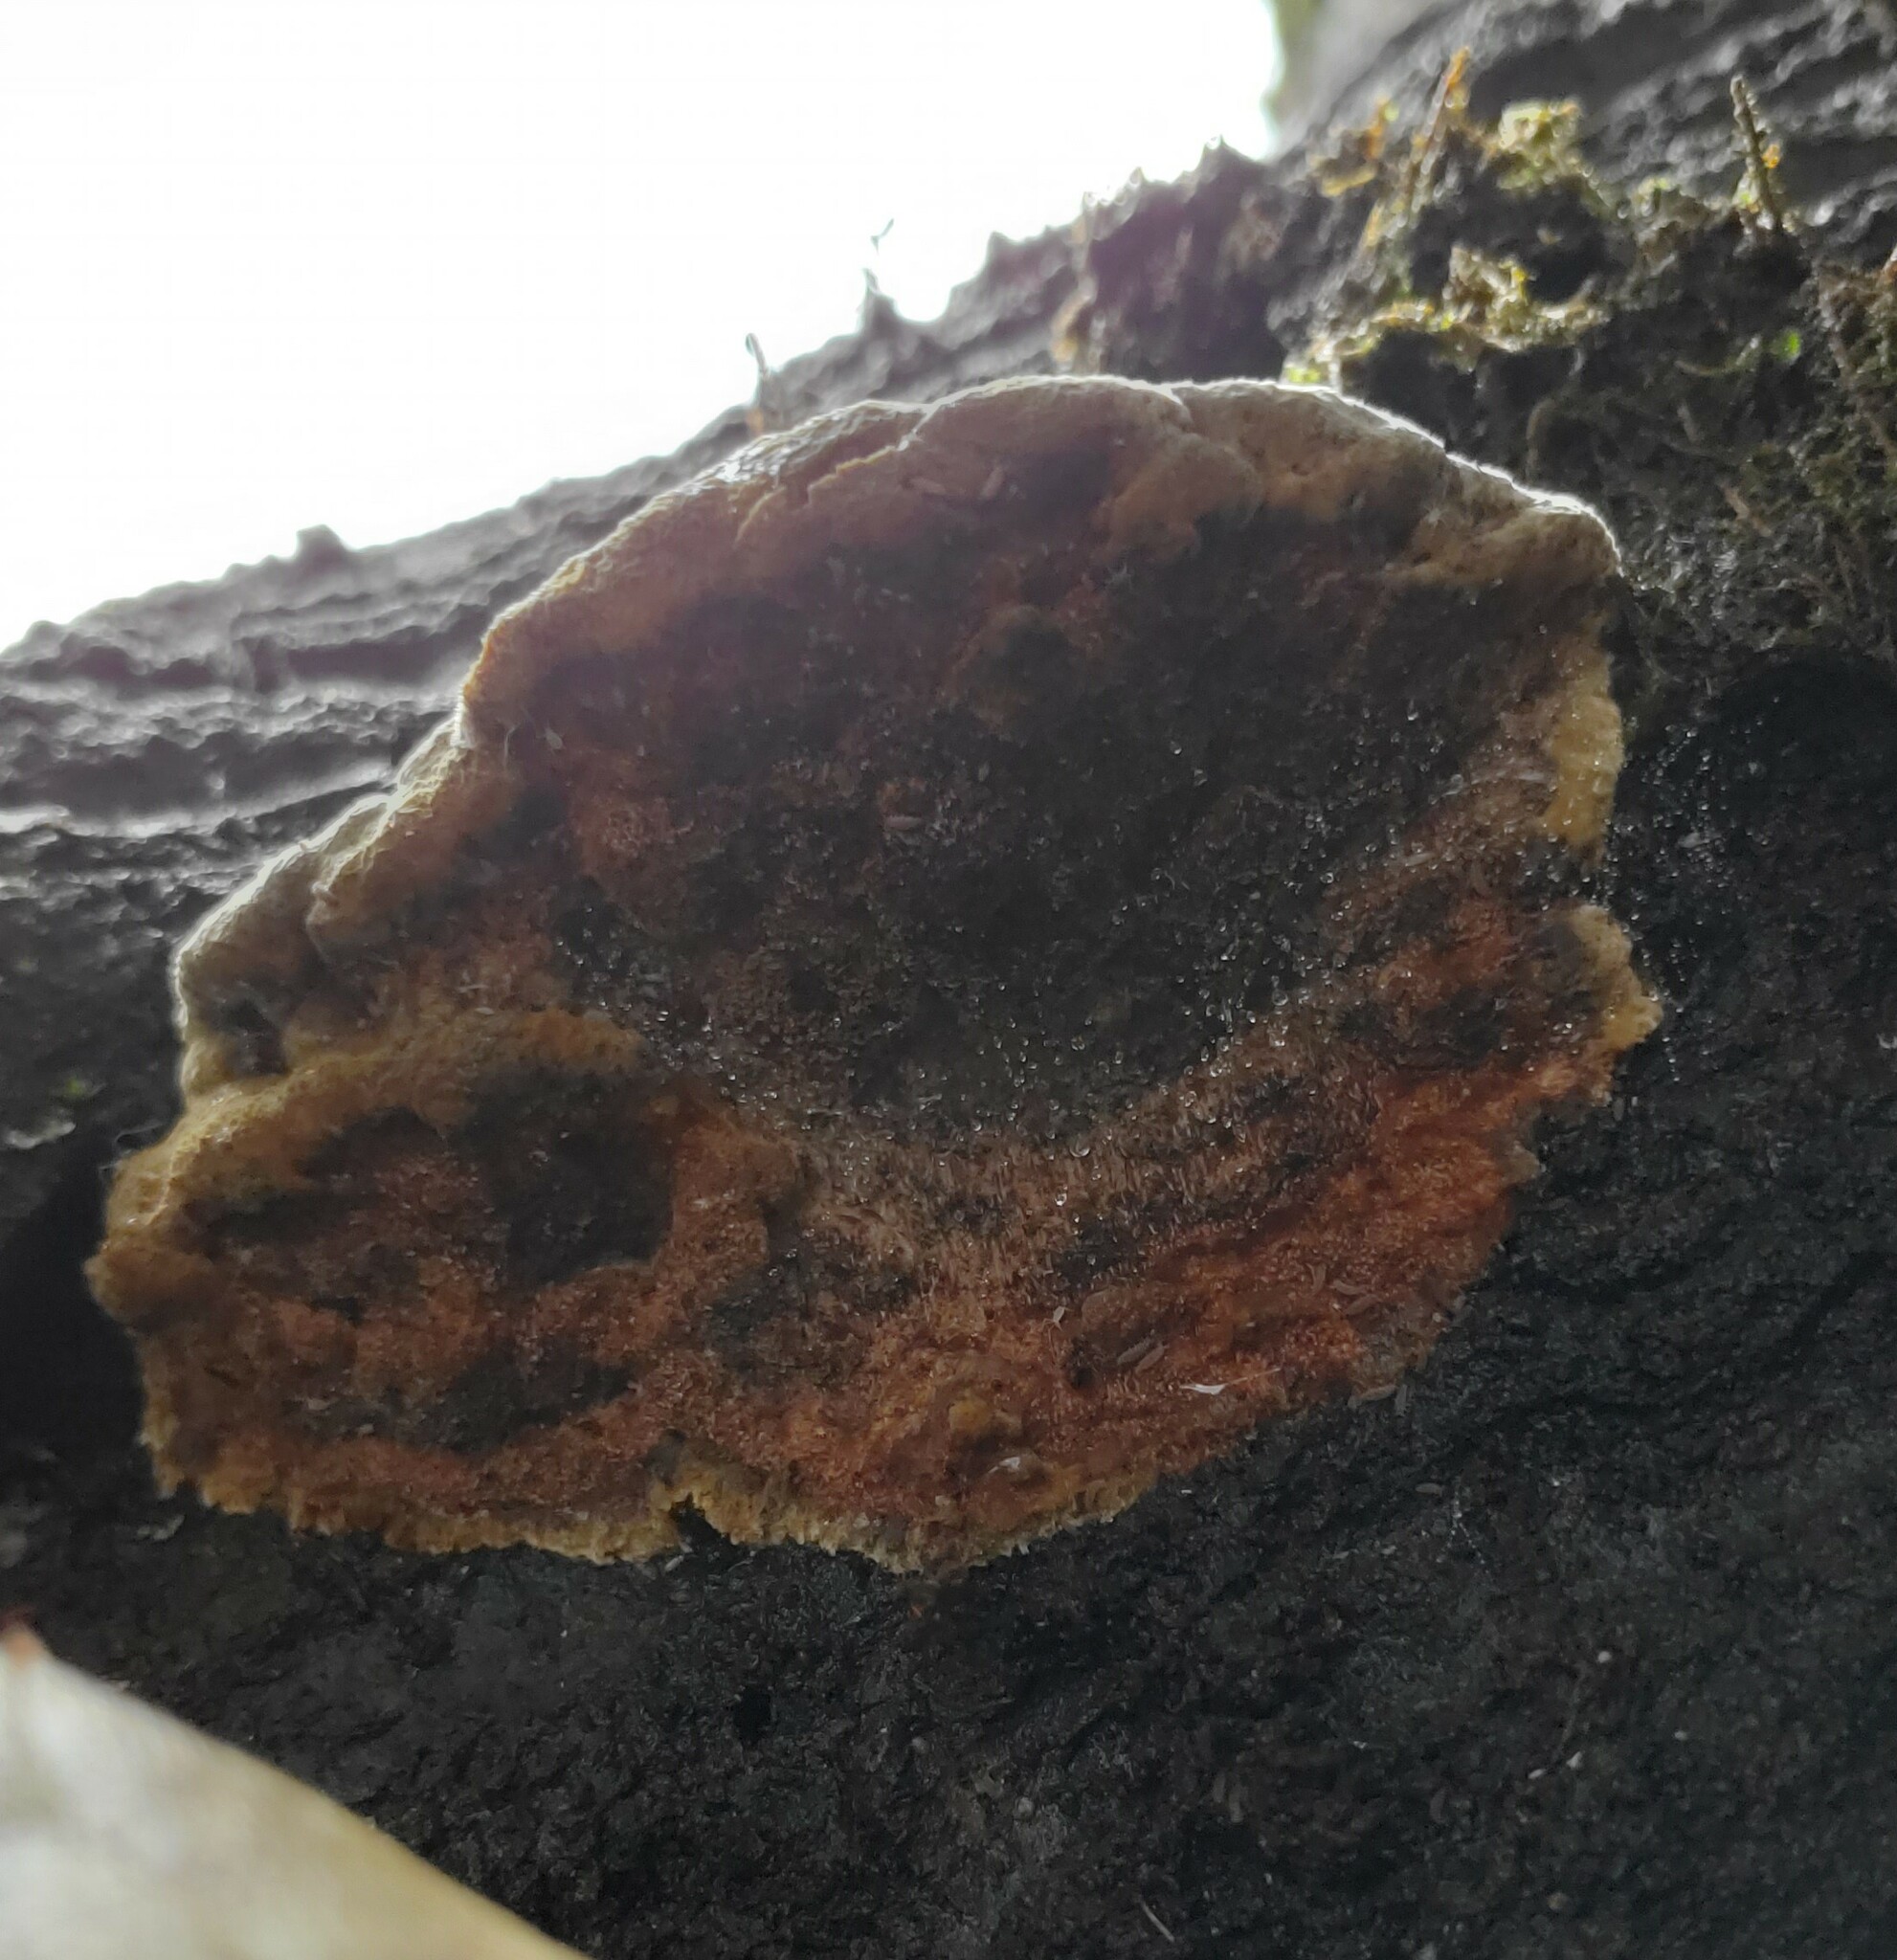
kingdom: Fungi
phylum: Basidiomycota
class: Agaricomycetes
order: Hymenochaetales
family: Hymenochaetaceae
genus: Phellinus
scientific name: Phellinus gilvus
